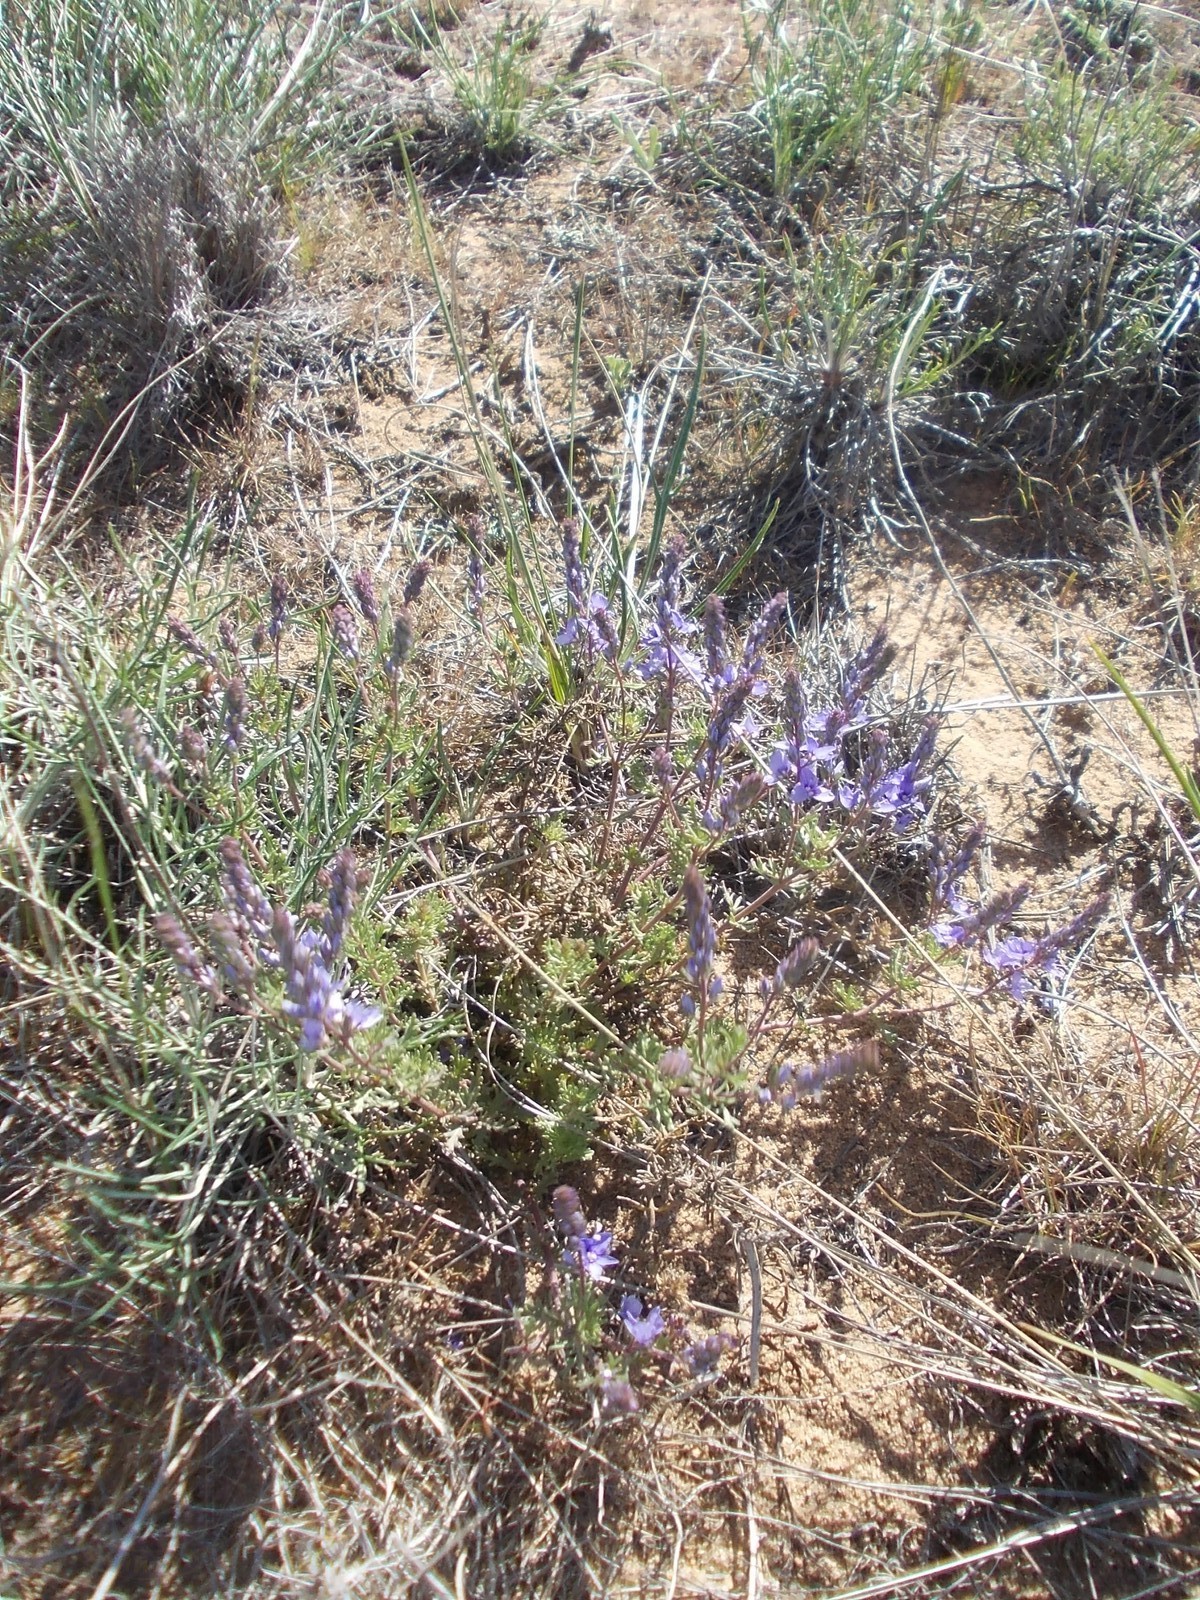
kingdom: Plantae
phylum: Tracheophyta
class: Magnoliopsida
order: Lamiales
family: Plantaginaceae
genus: Veronica
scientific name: Veronica multifida
